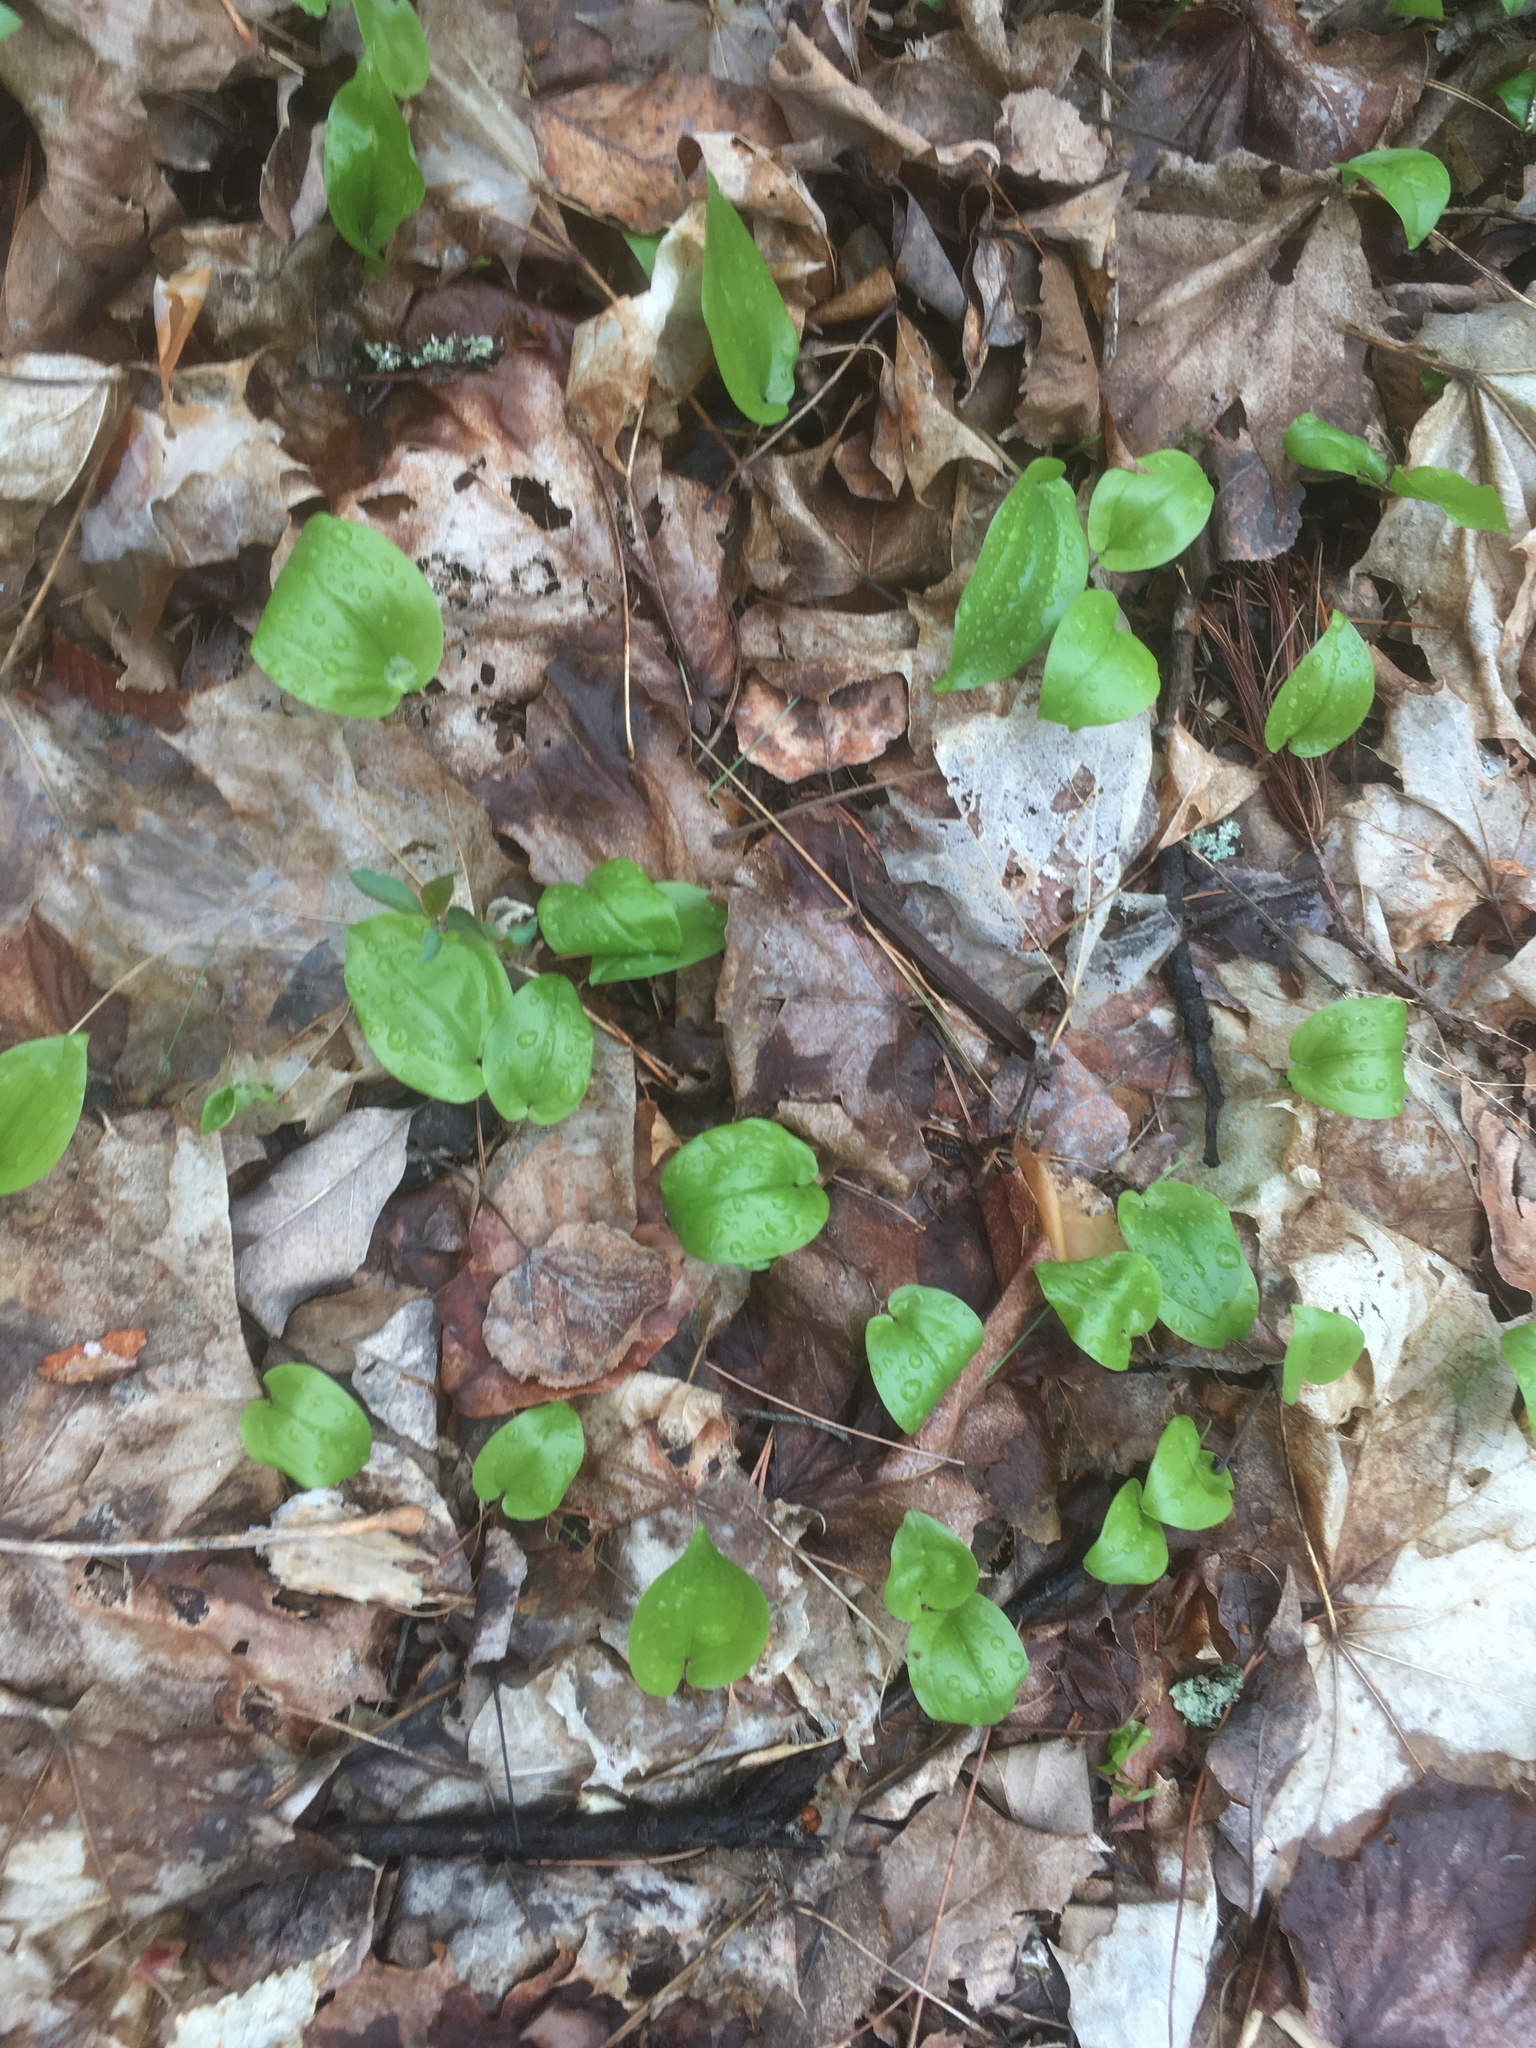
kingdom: Plantae
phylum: Tracheophyta
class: Liliopsida
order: Asparagales
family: Asparagaceae
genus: Maianthemum
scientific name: Maianthemum canadense
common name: False lily-of-the-valley
